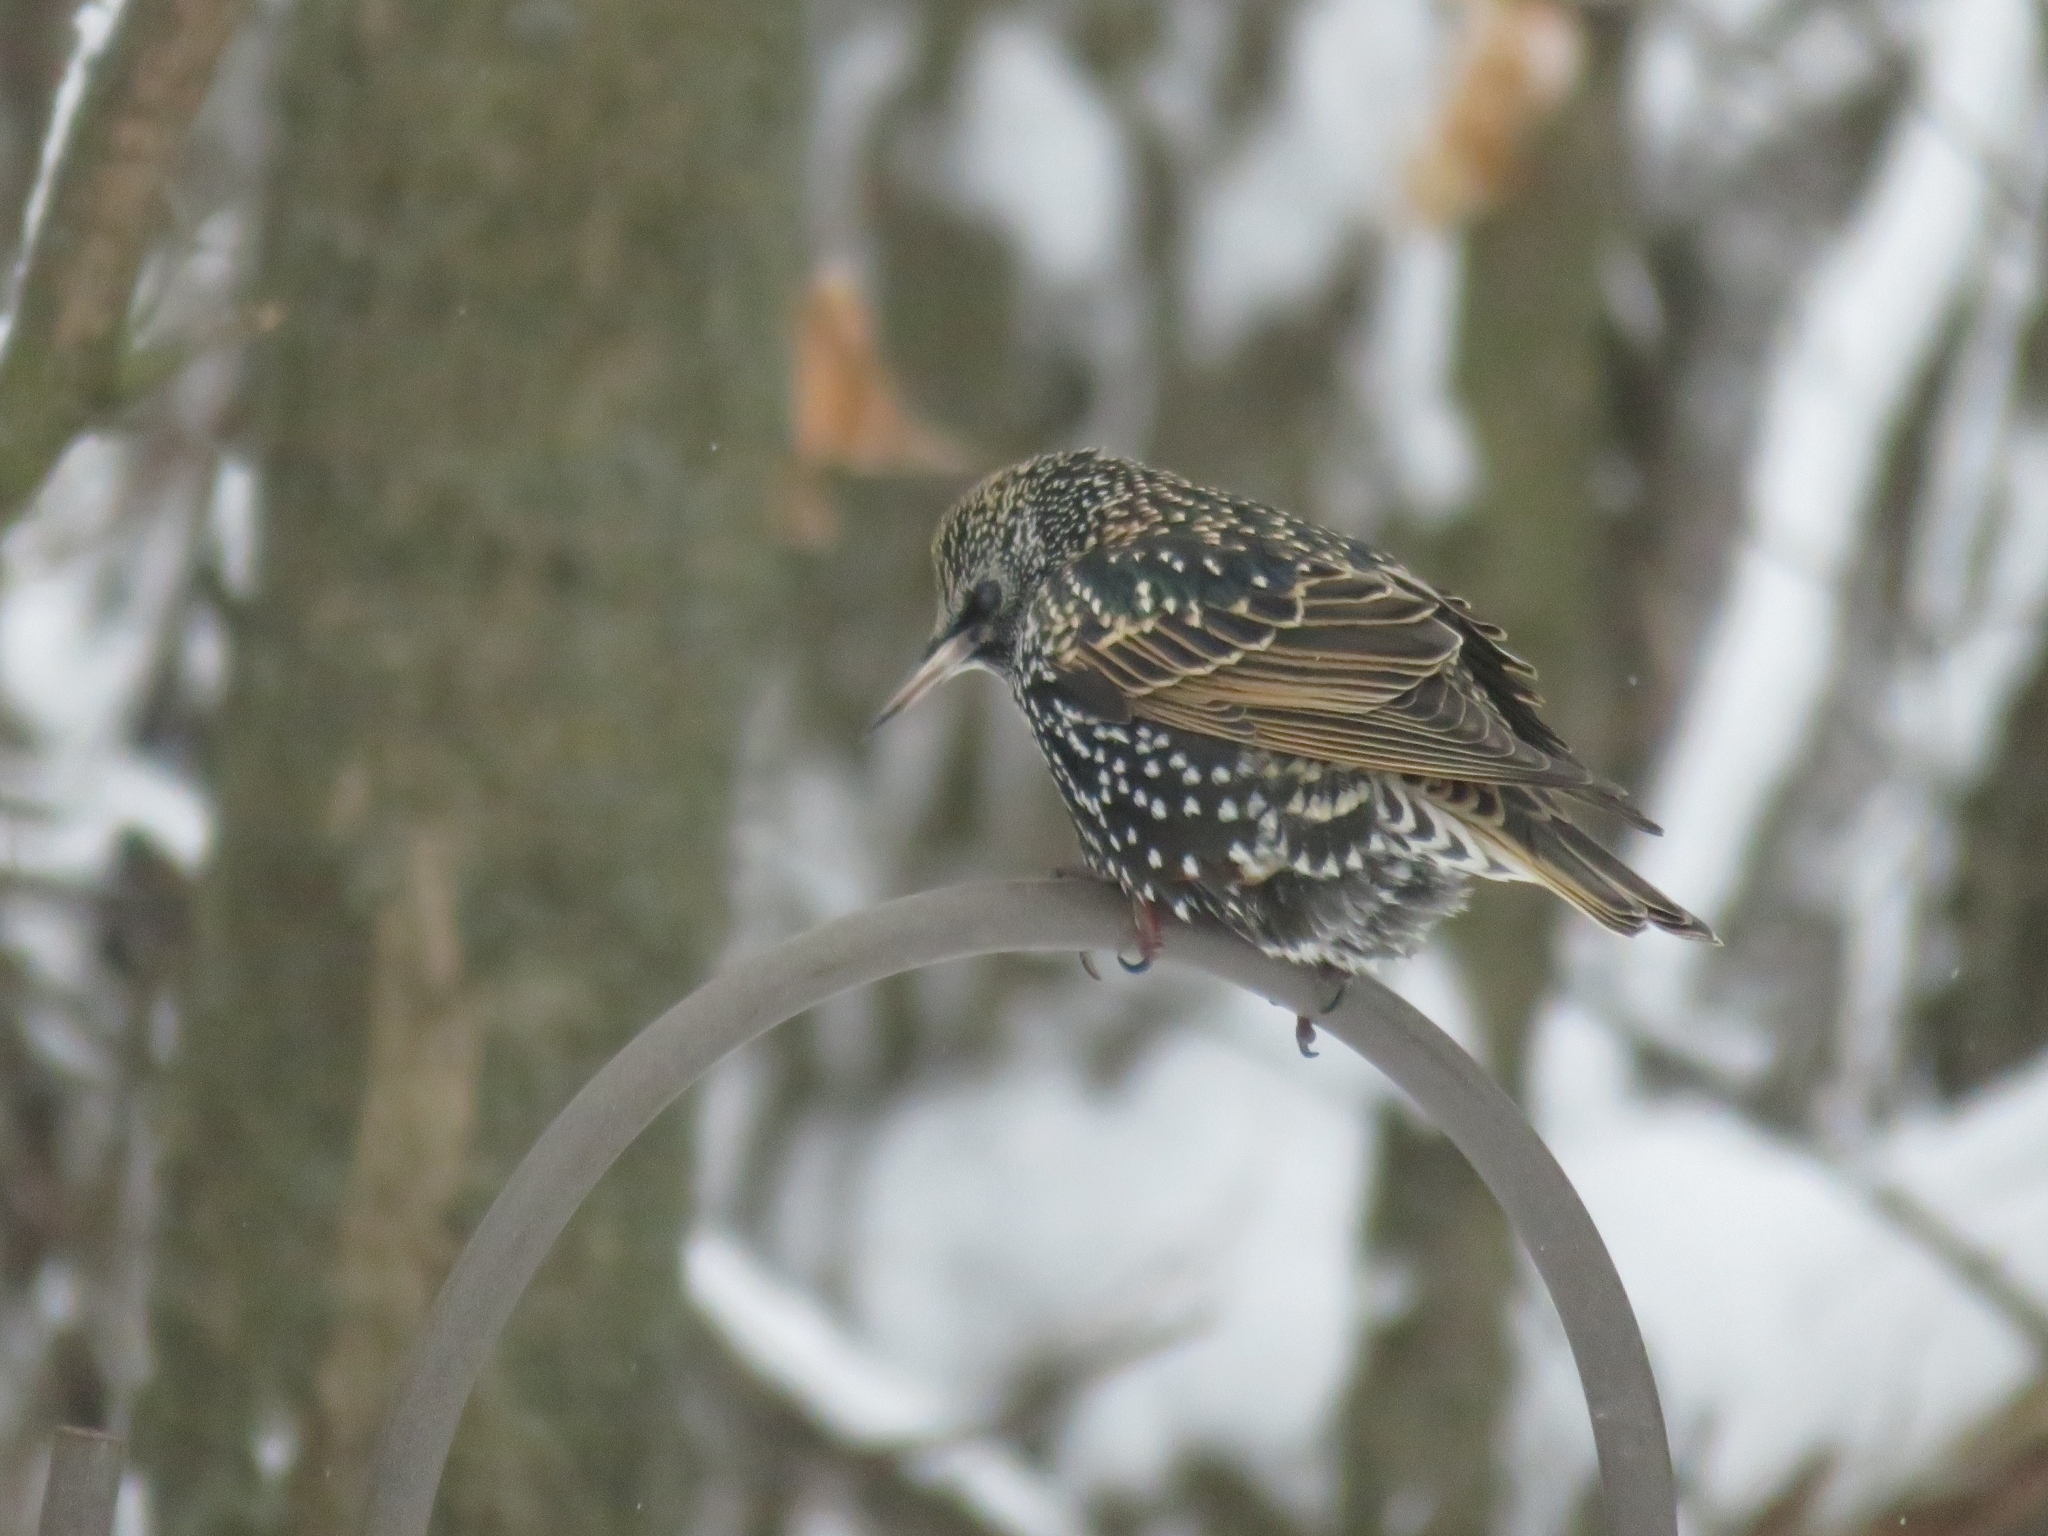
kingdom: Animalia
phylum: Chordata
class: Aves
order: Passeriformes
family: Sturnidae
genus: Sturnus
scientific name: Sturnus vulgaris
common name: Common starling
